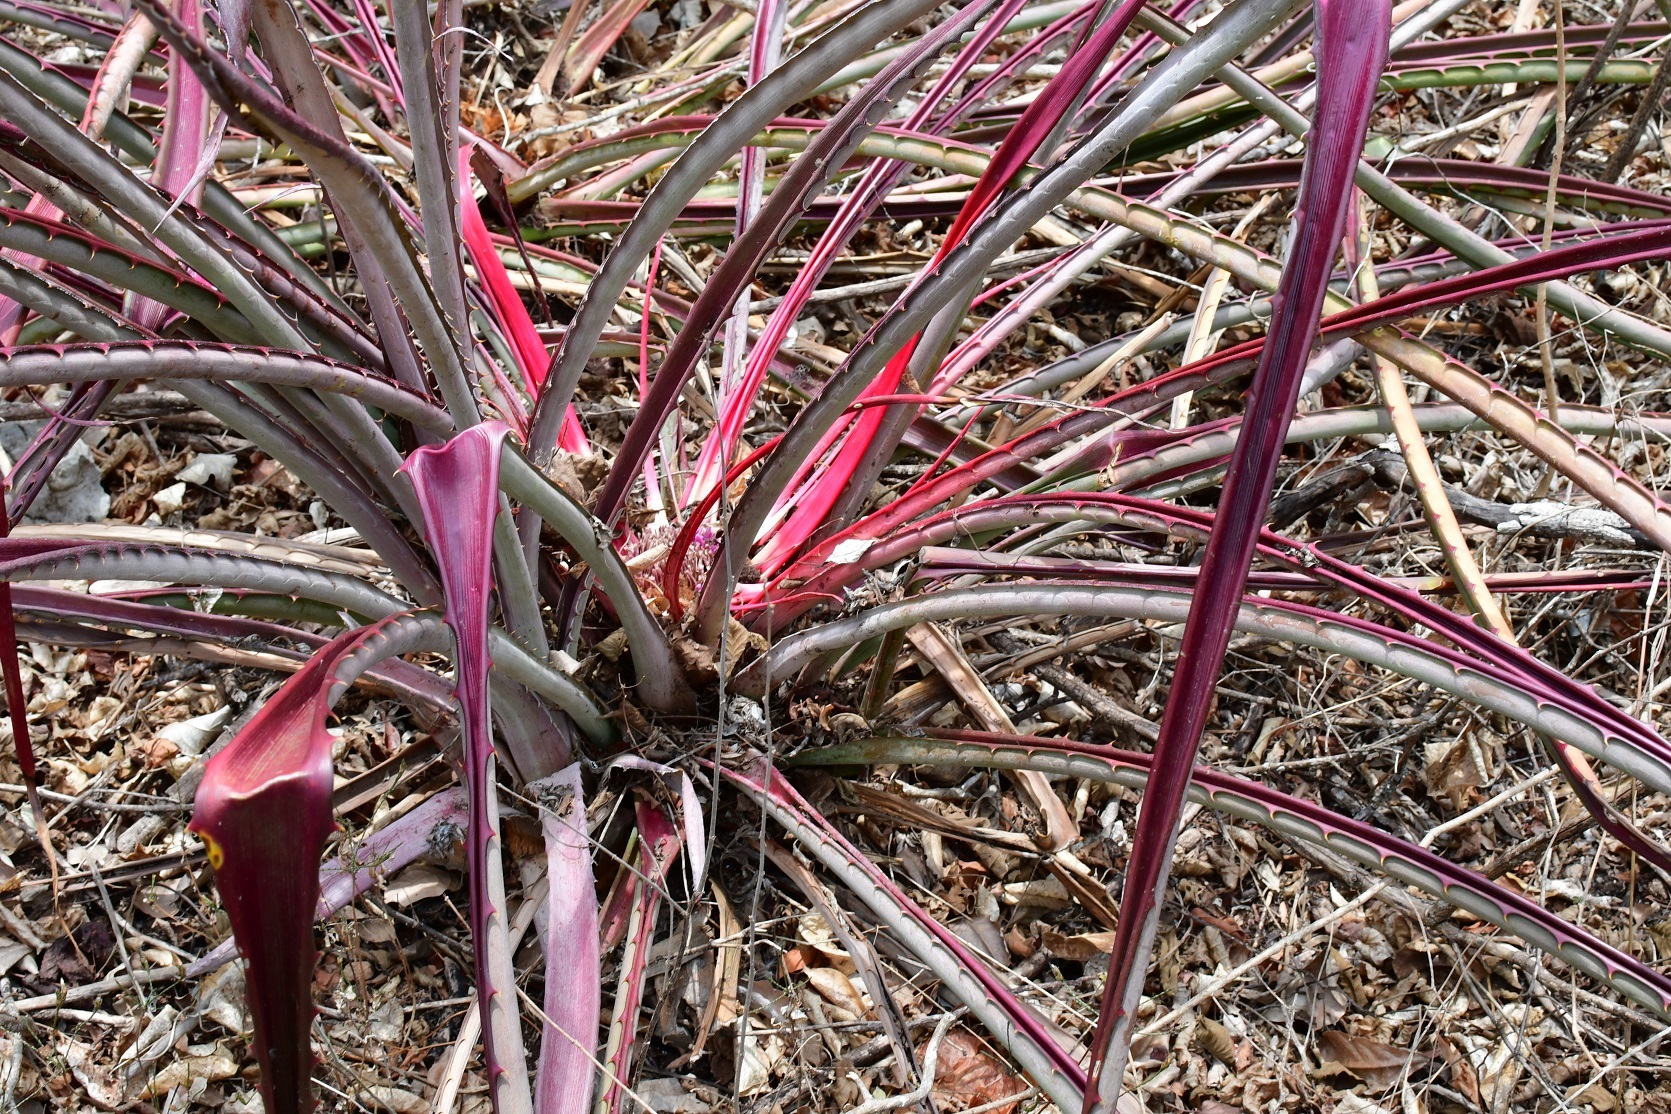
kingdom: Plantae
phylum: Tracheophyta
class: Liliopsida
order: Poales
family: Bromeliaceae
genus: Bromelia
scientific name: Bromelia karatas
